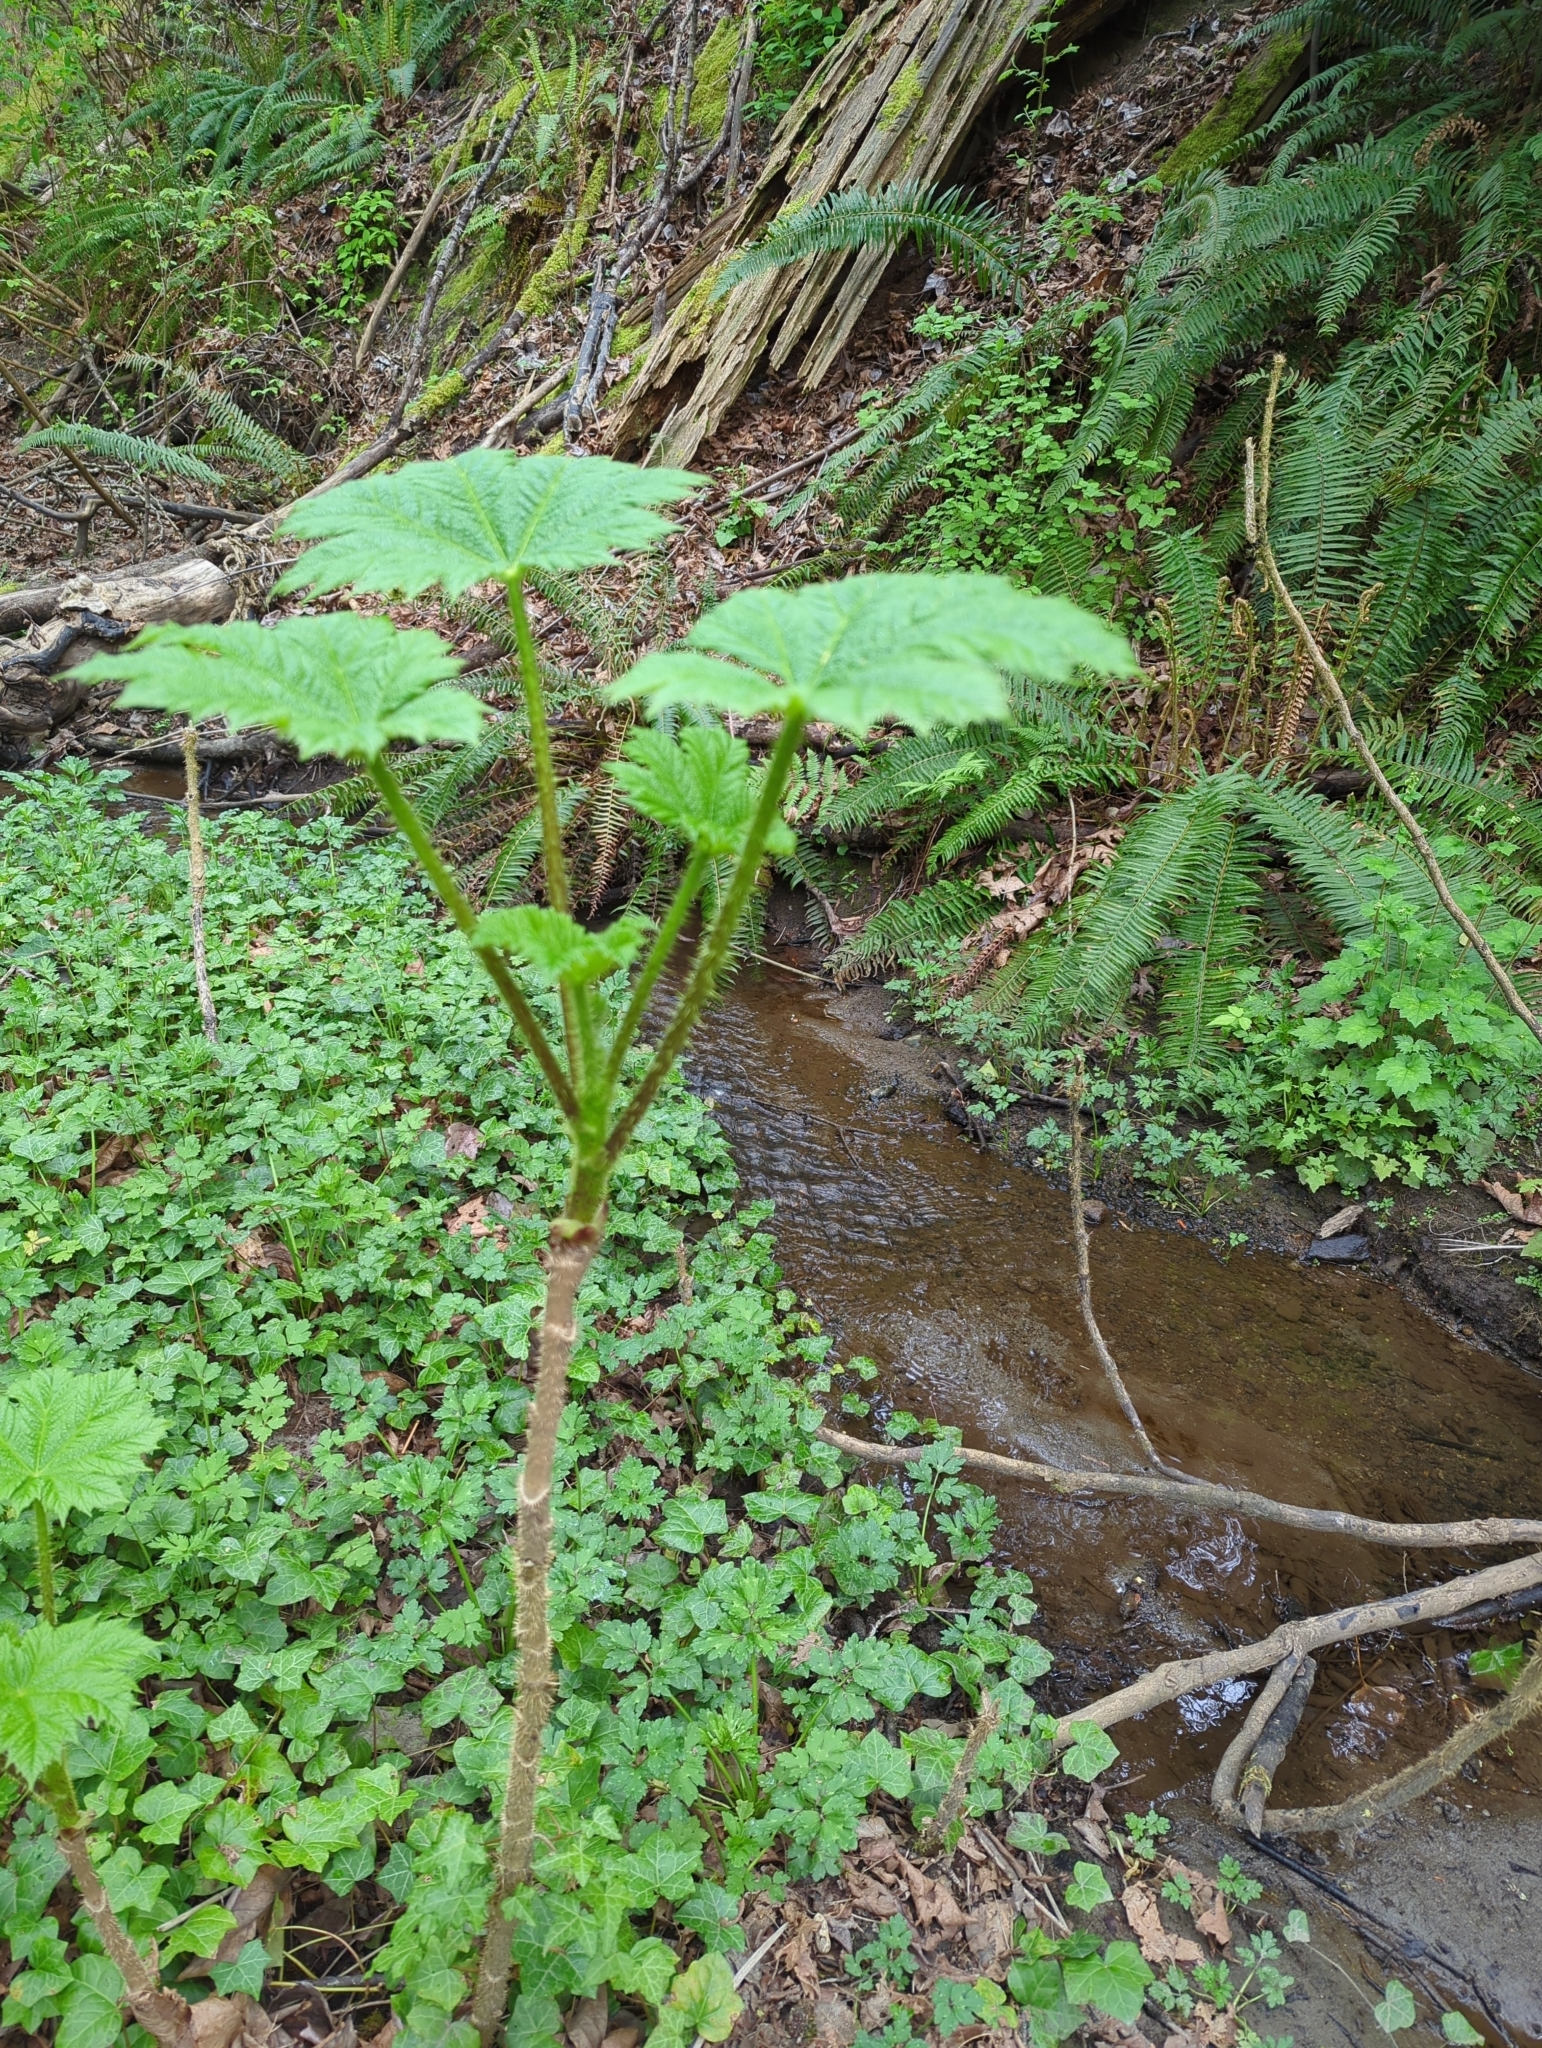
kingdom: Plantae
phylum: Tracheophyta
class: Magnoliopsida
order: Apiales
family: Araliaceae
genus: Oplopanax
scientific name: Oplopanax horridus
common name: Devil's walking-stick
